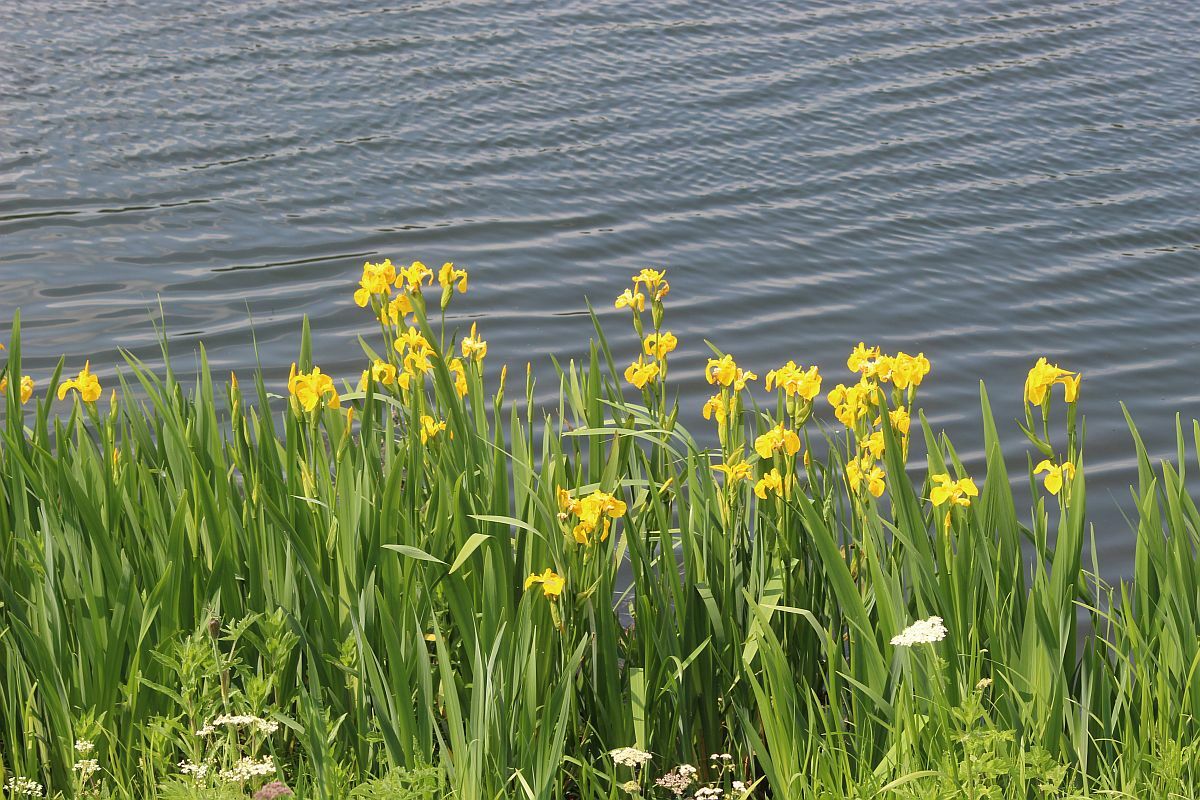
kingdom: Plantae
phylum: Tracheophyta
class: Liliopsida
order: Asparagales
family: Iridaceae
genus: Iris
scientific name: Iris pseudacorus
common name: Yellow flag
